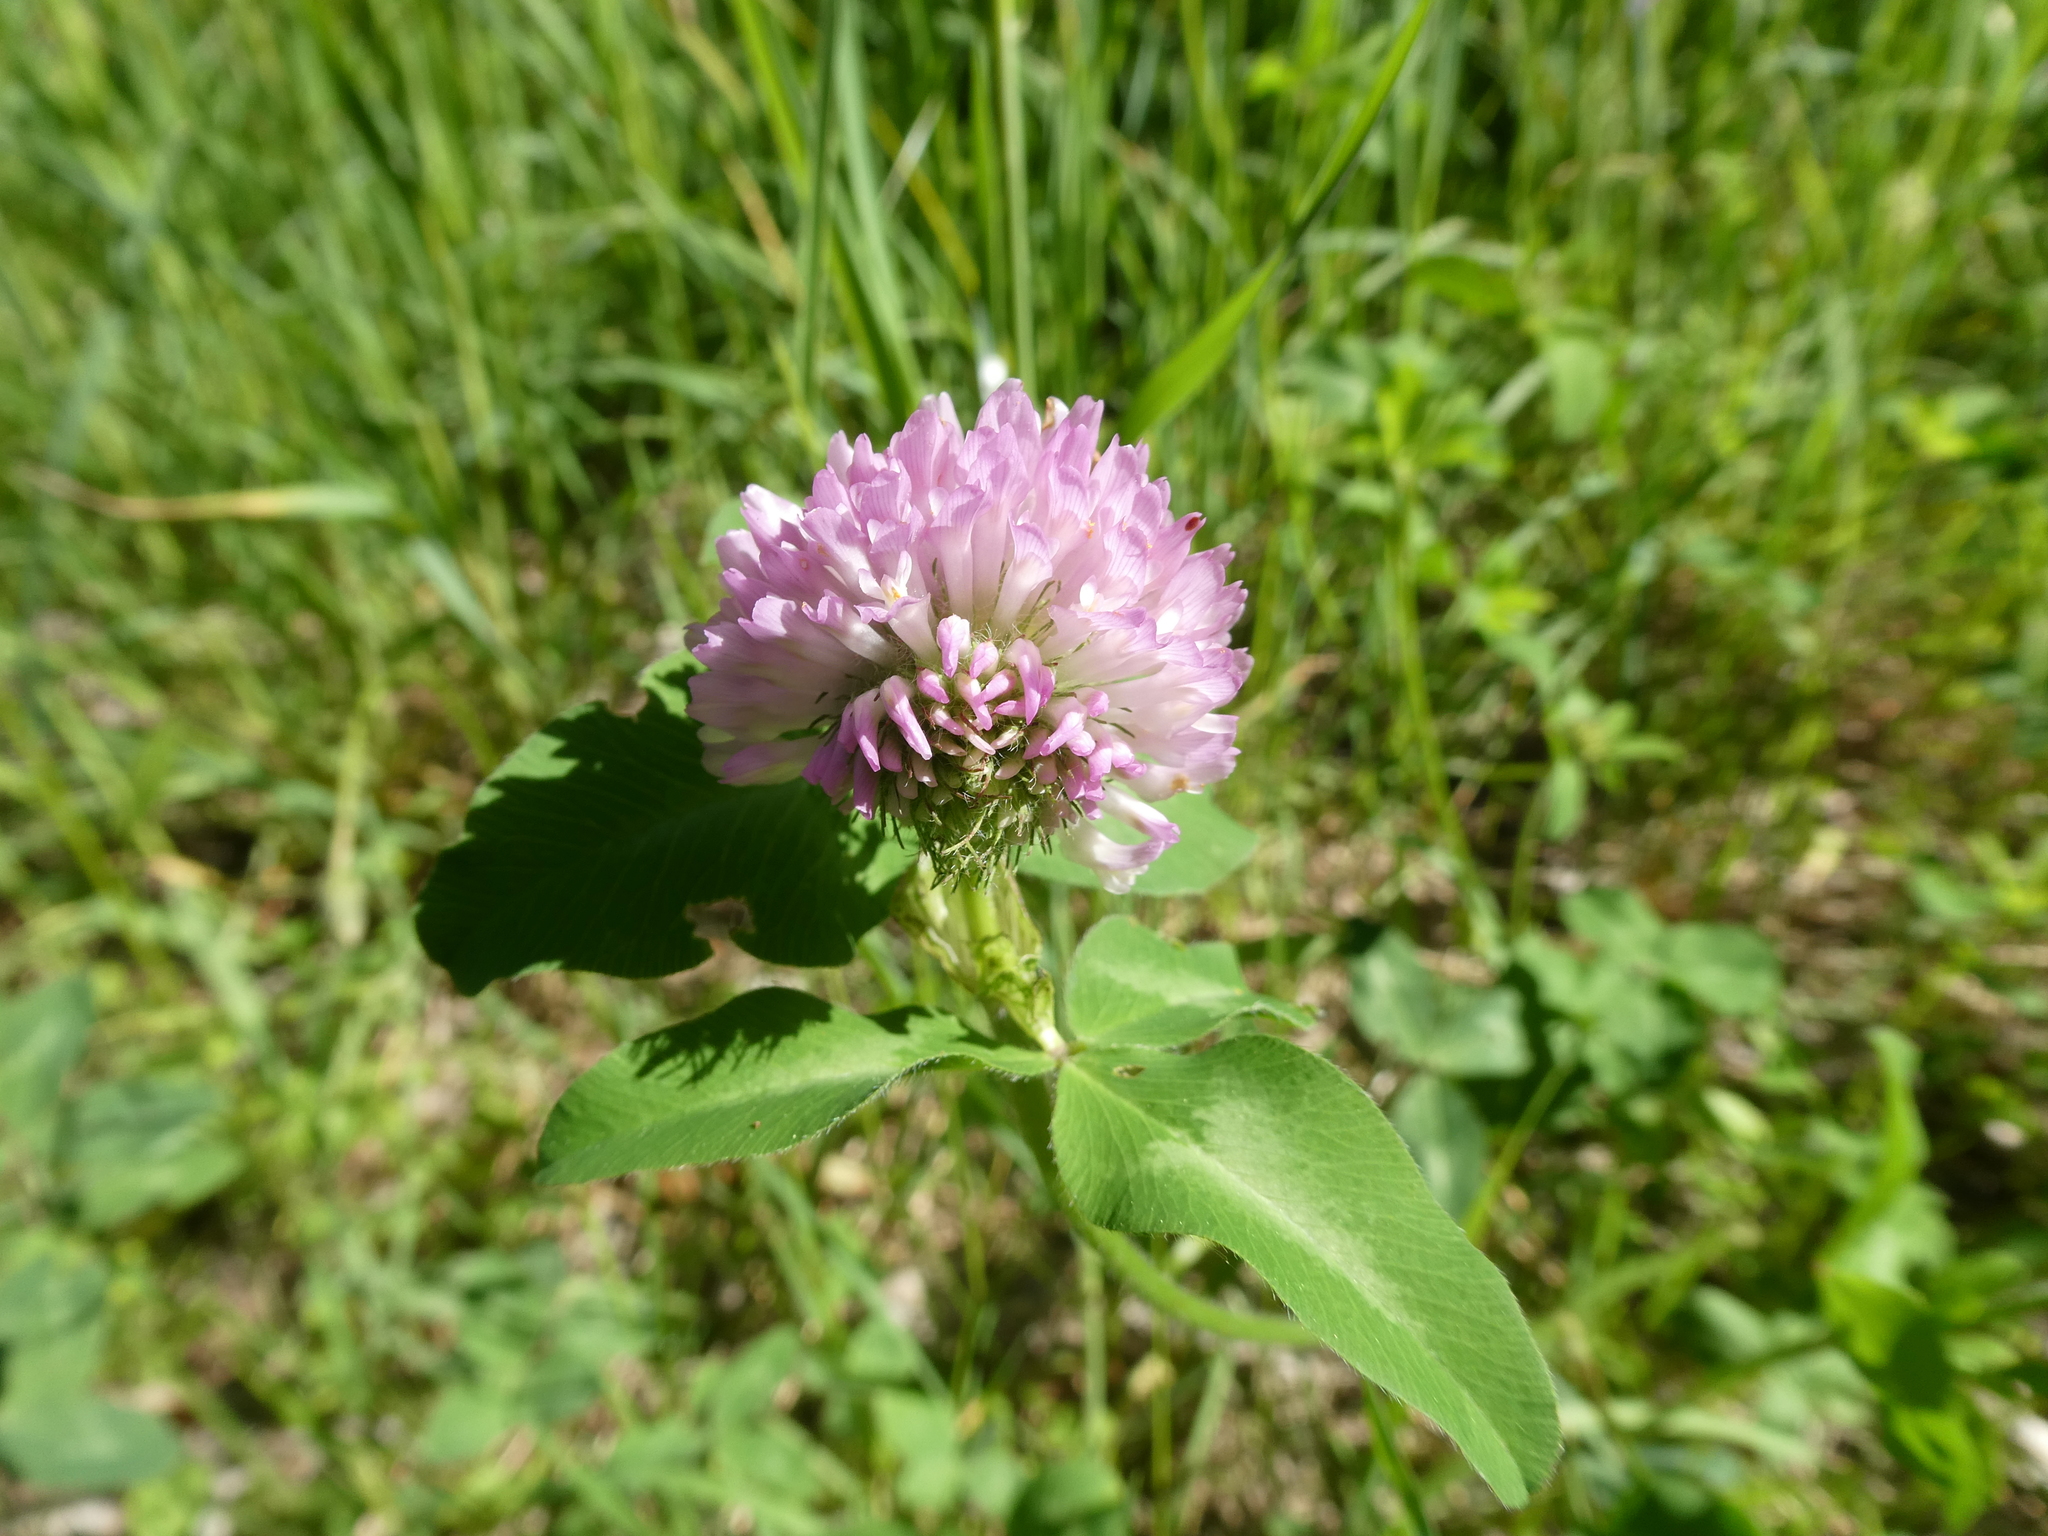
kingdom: Plantae
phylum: Tracheophyta
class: Magnoliopsida
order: Fabales
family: Fabaceae
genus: Trifolium
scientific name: Trifolium pratense
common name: Red clover
